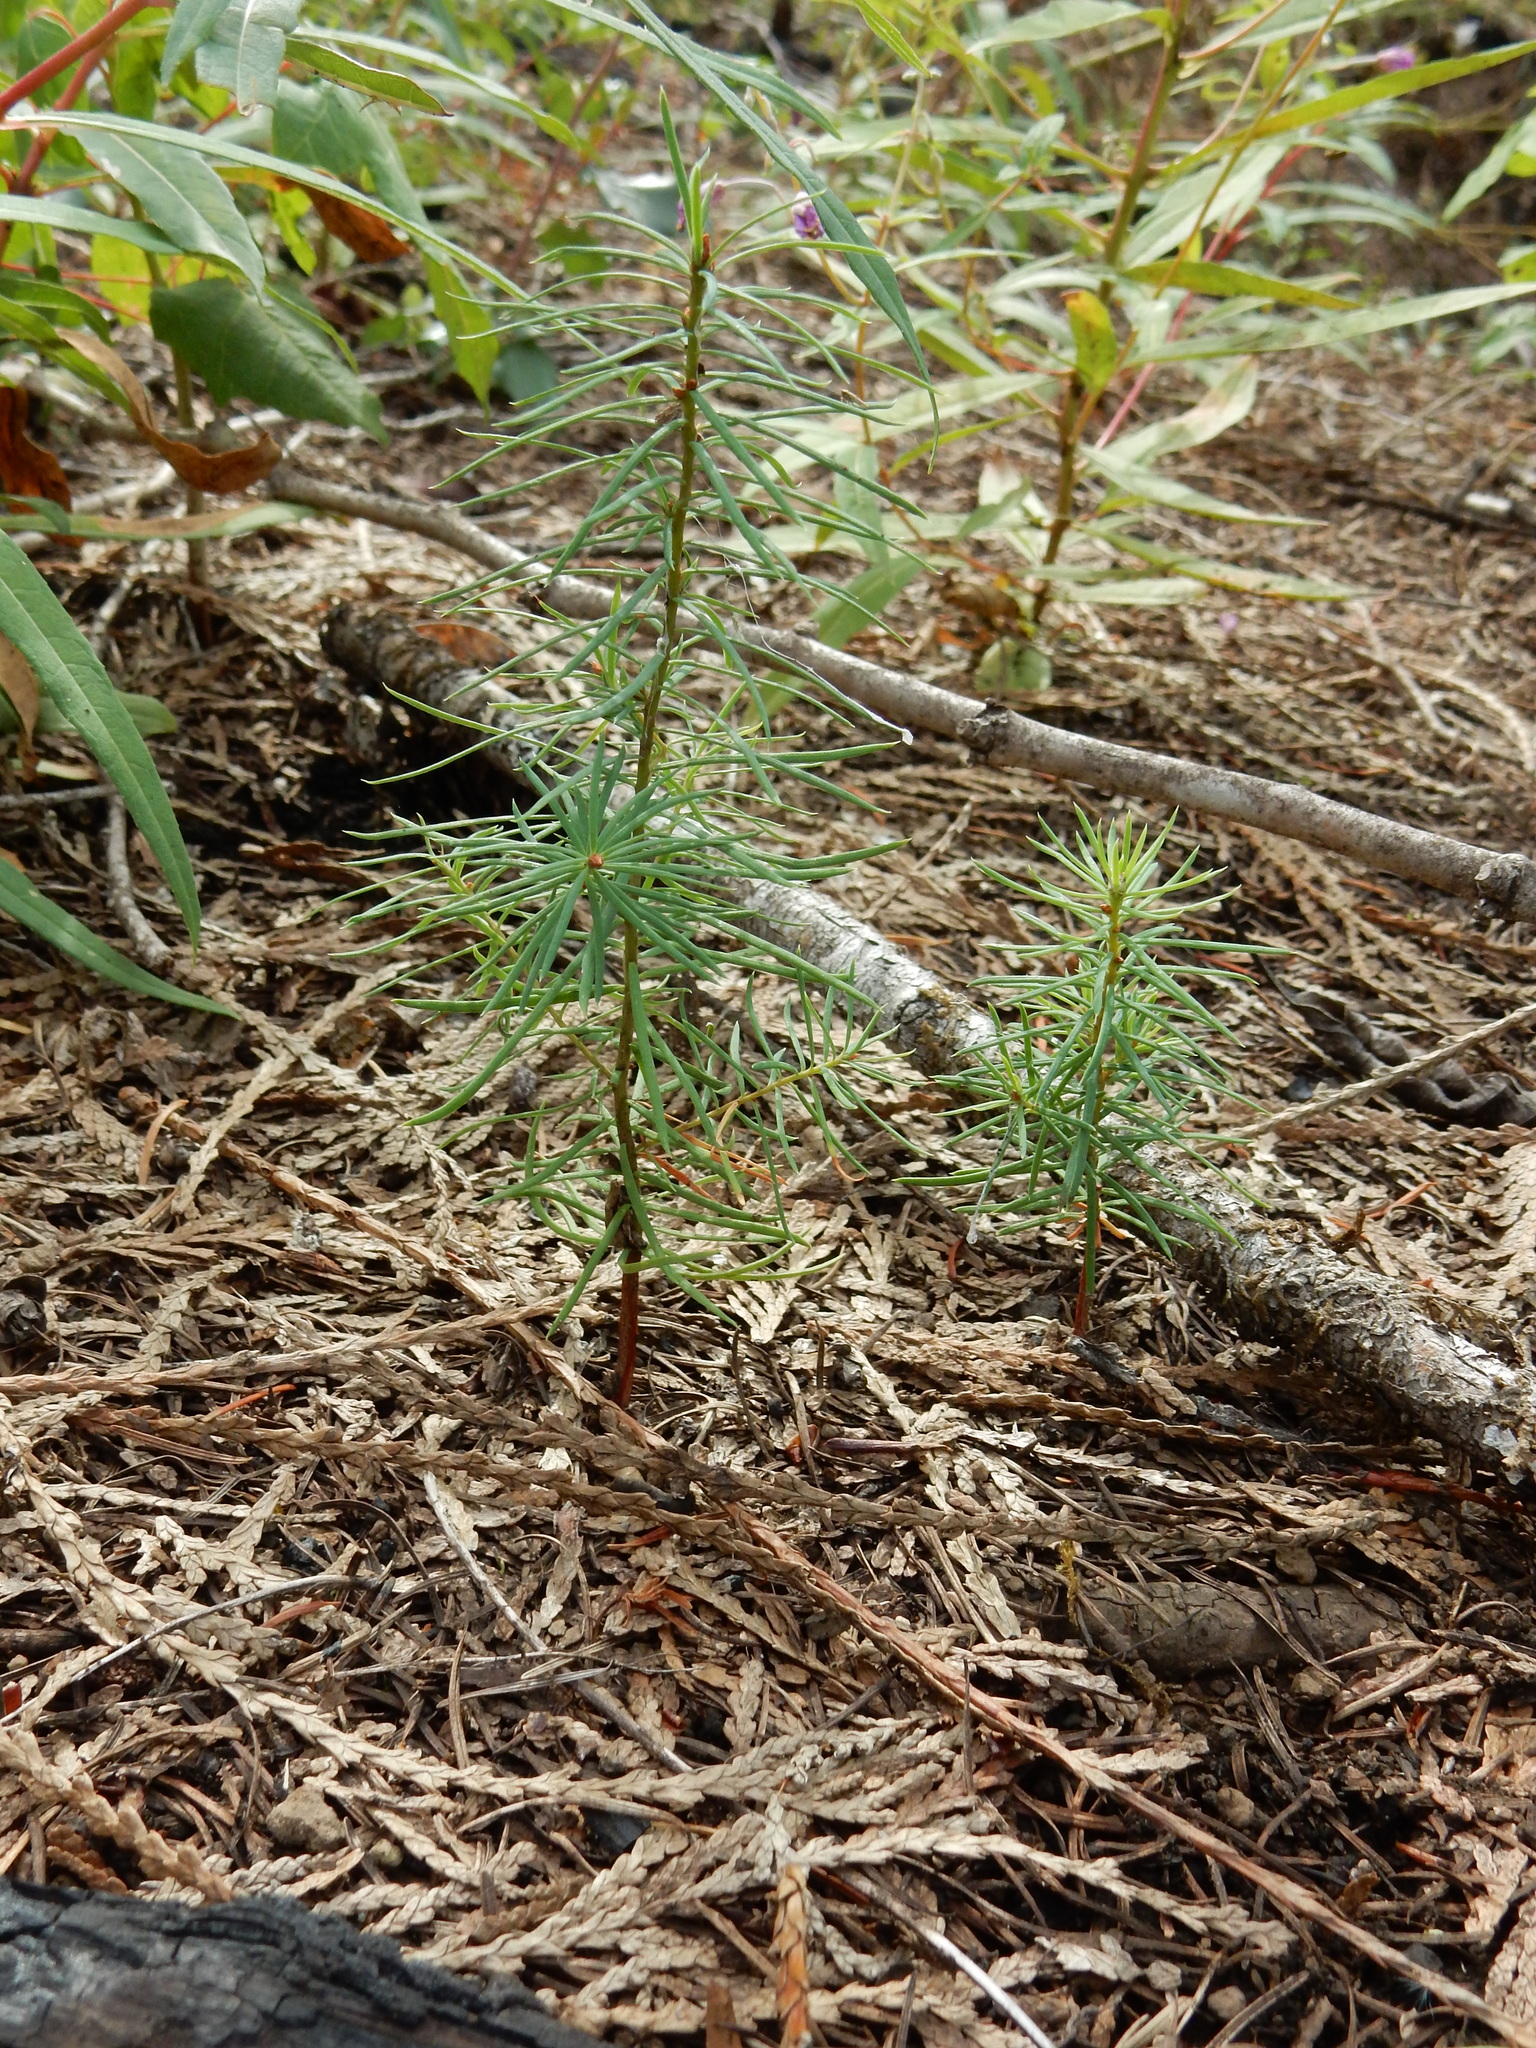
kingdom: Plantae
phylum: Tracheophyta
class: Pinopsida
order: Pinales
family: Pinaceae
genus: Pseudotsuga
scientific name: Pseudotsuga menziesii
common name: Douglas fir
